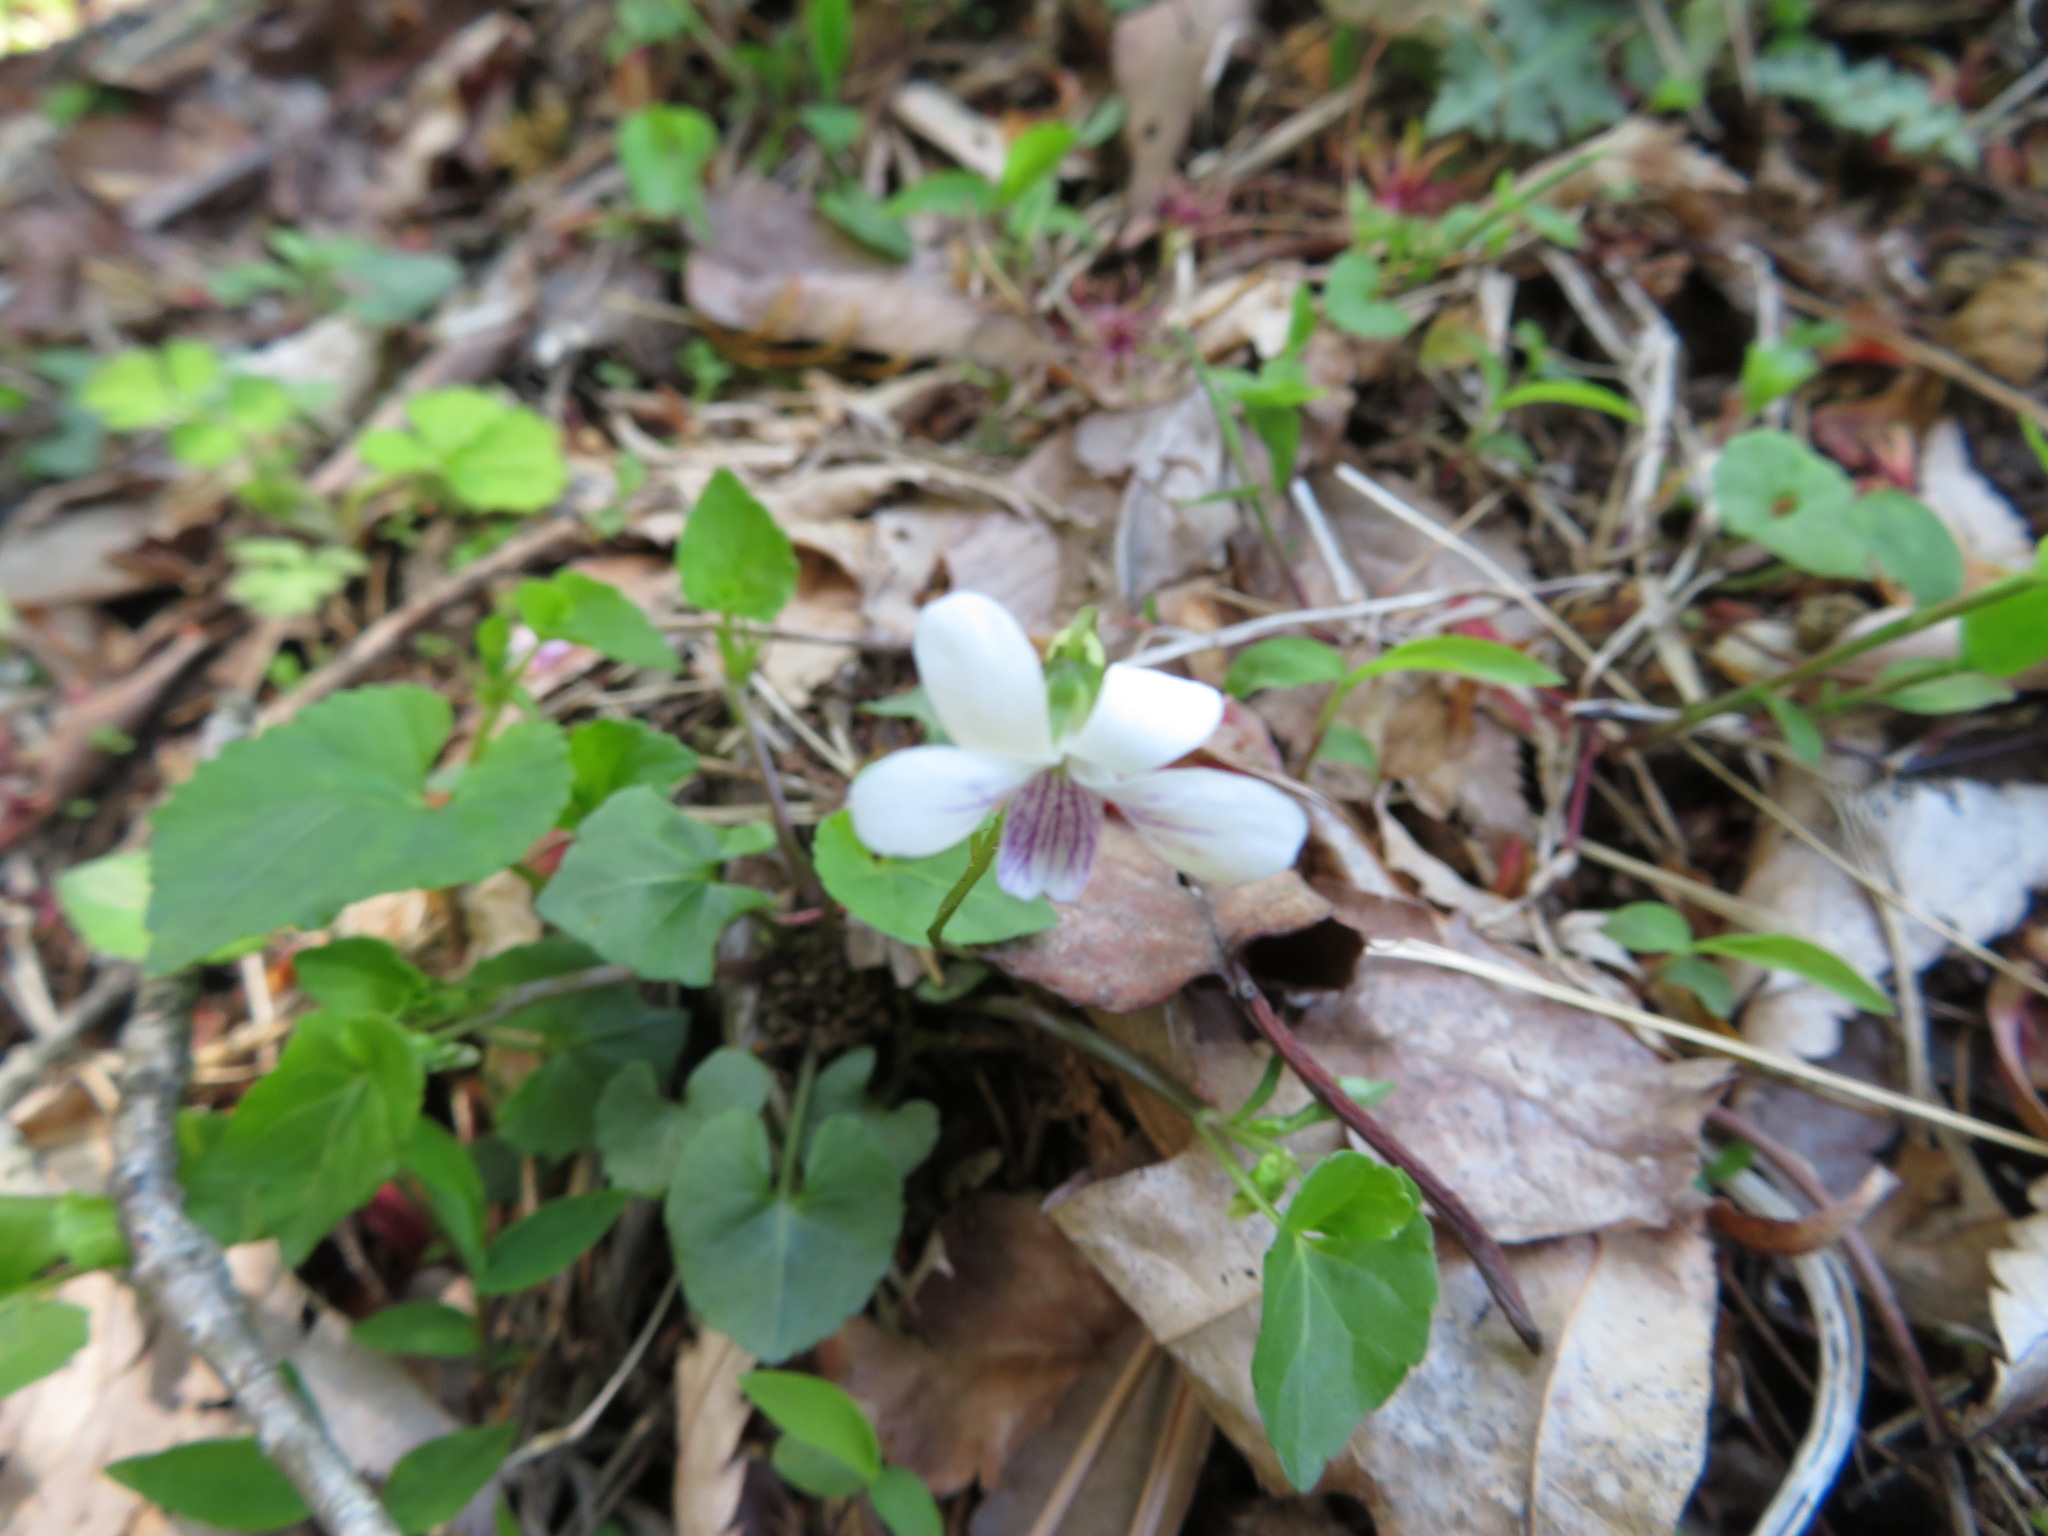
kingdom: Plantae
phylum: Tracheophyta
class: Magnoliopsida
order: Malpighiales
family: Violaceae
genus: Viola
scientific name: Viola
